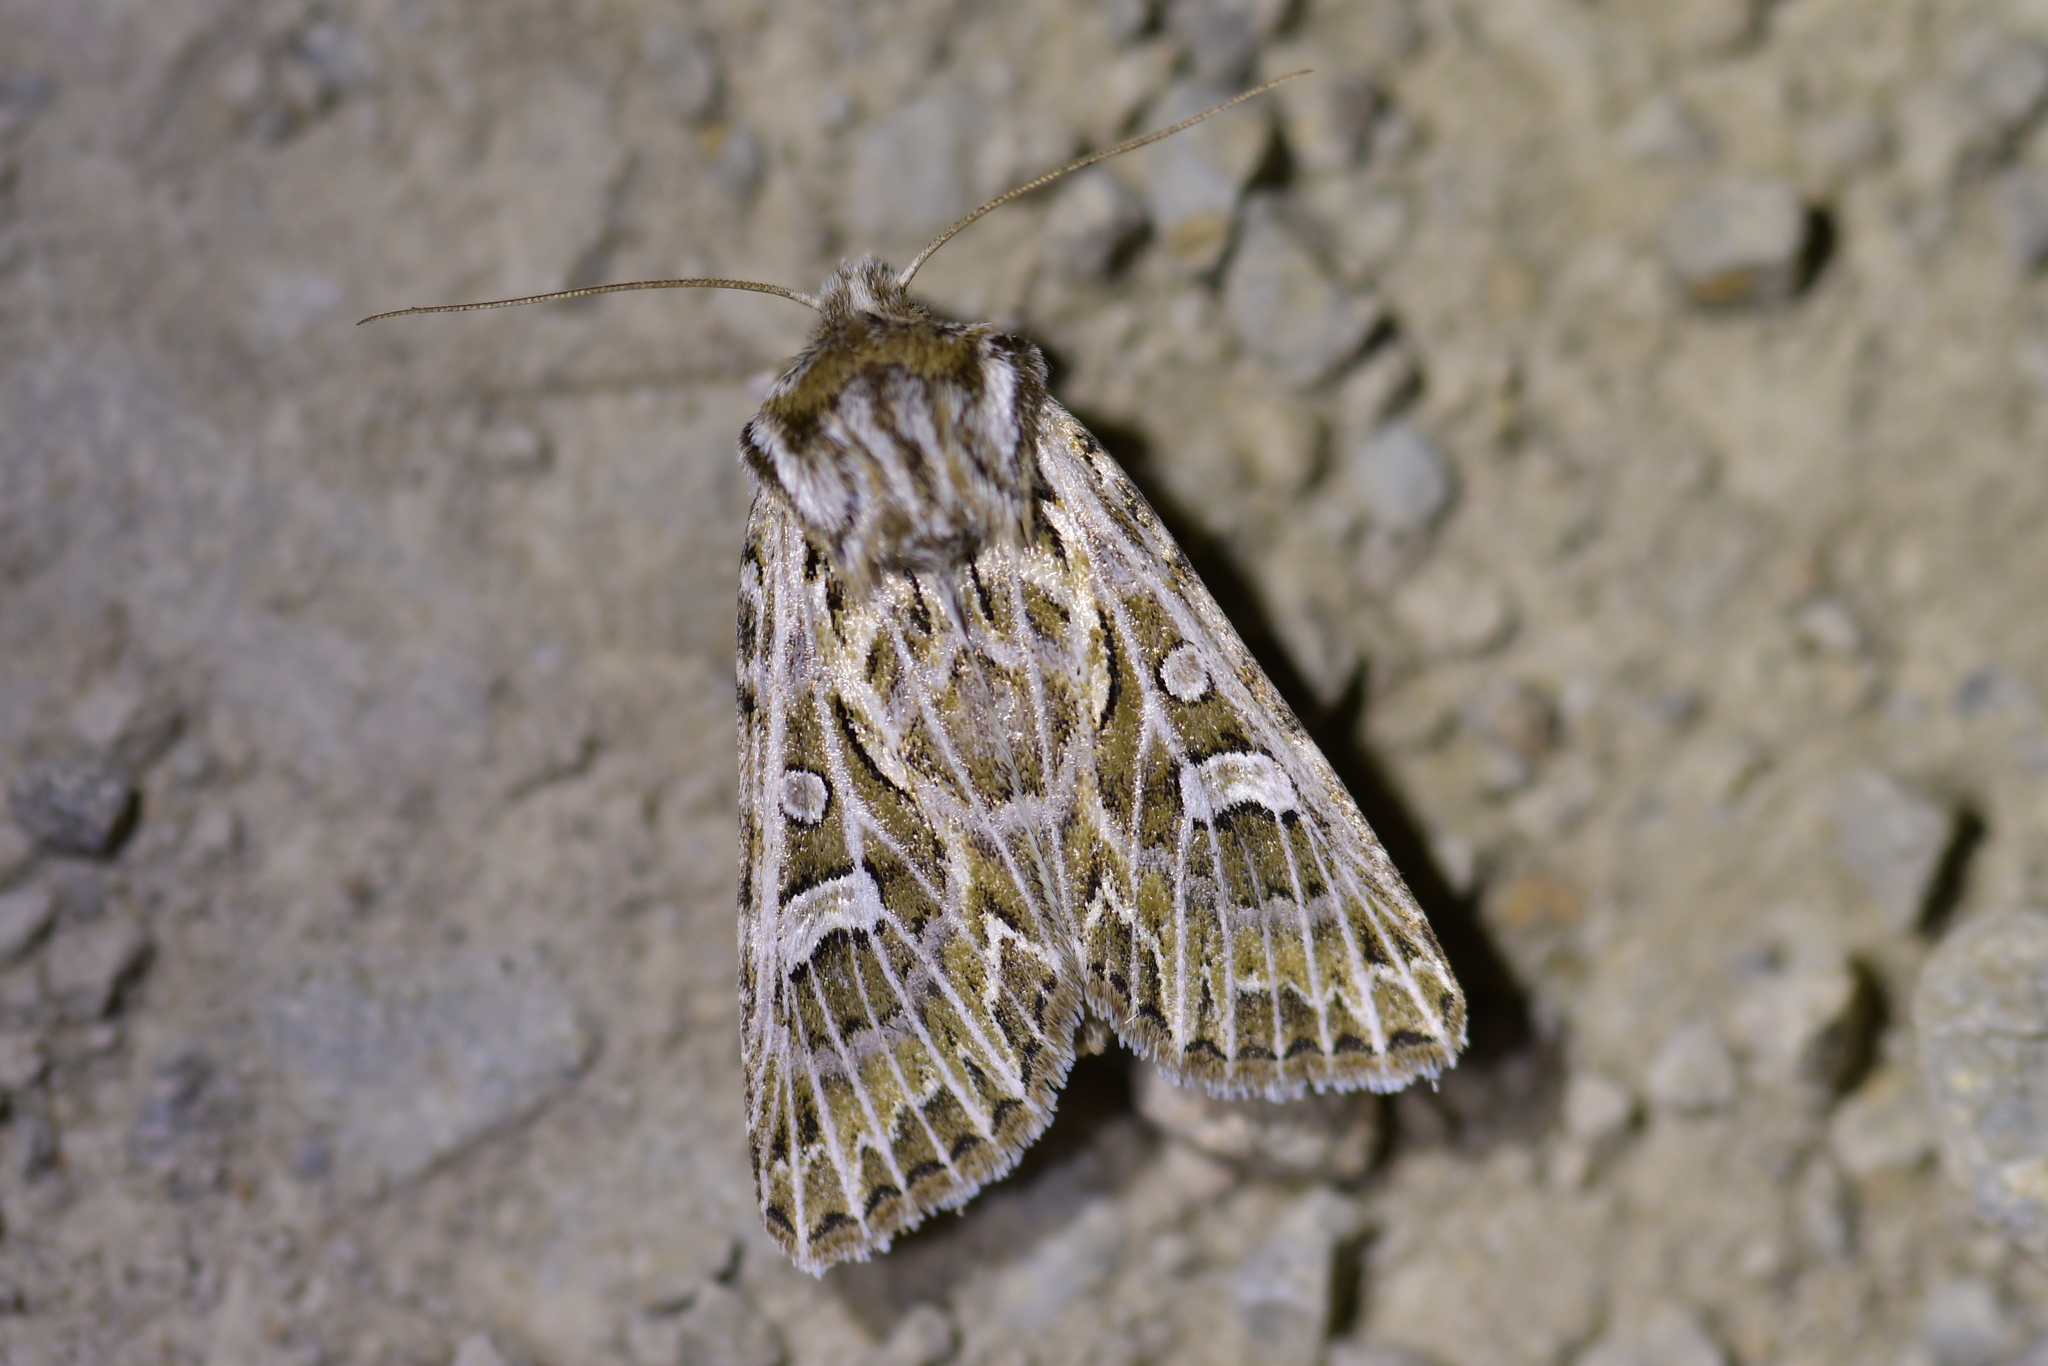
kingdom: Animalia
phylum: Arthropoda
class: Insecta
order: Lepidoptera
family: Noctuidae
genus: Ichneutica
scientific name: Ichneutica
